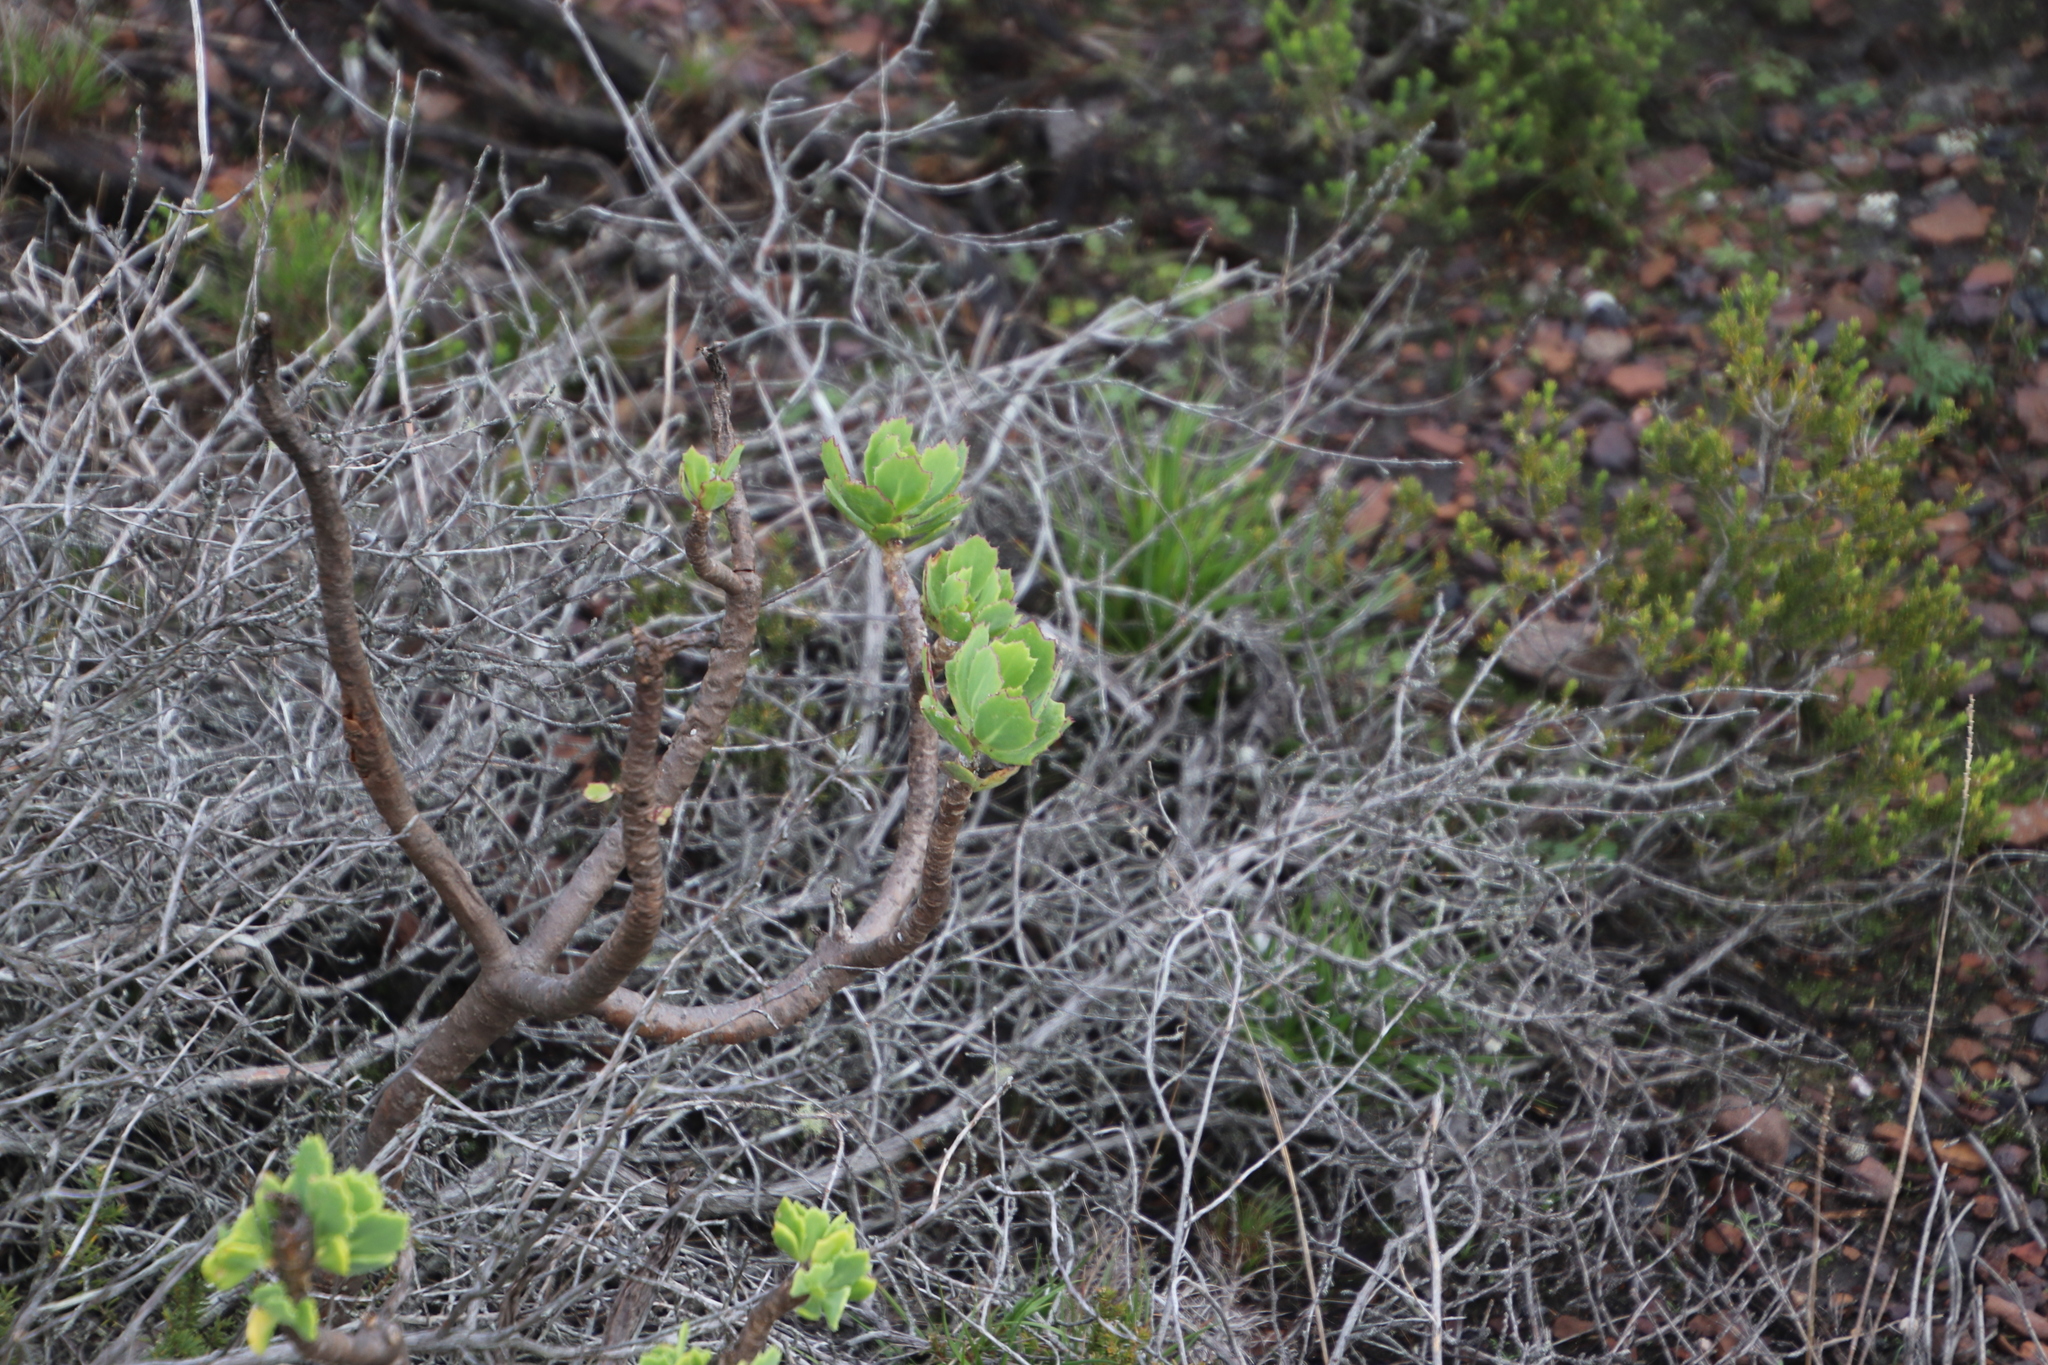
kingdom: Plantae
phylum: Tracheophyta
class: Magnoliopsida
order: Asterales
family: Asteraceae
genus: Othonna
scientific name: Othonna dentata
